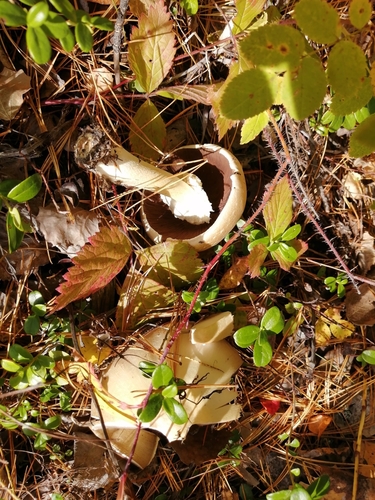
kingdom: Fungi
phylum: Basidiomycota
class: Agaricomycetes
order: Agaricales
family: Agaricaceae
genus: Agaricus
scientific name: Agaricus sylvicola
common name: Wood mushroom
